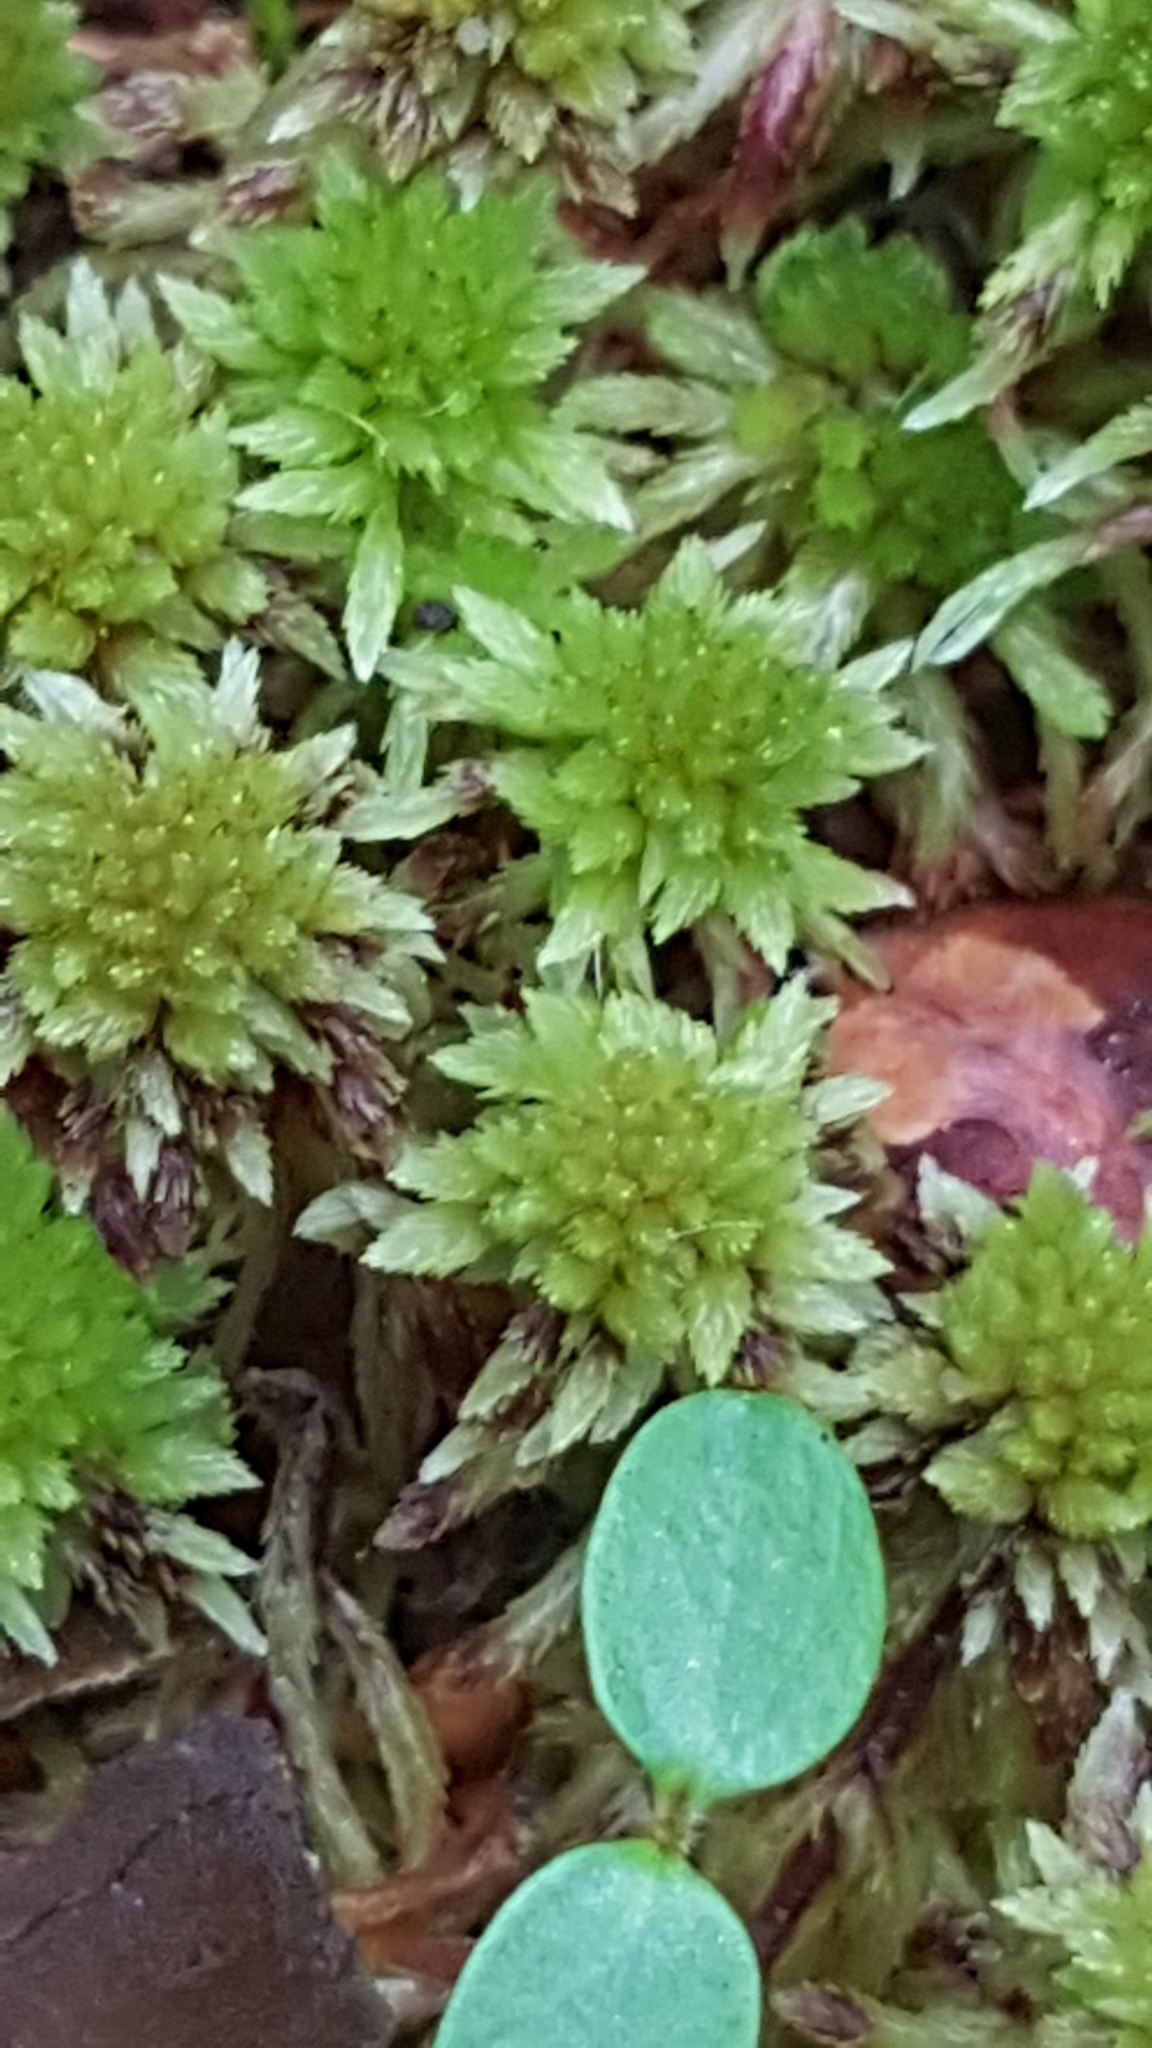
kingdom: Plantae
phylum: Bryophyta
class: Sphagnopsida
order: Sphagnales
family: Sphagnaceae
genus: Sphagnum
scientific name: Sphagnum
